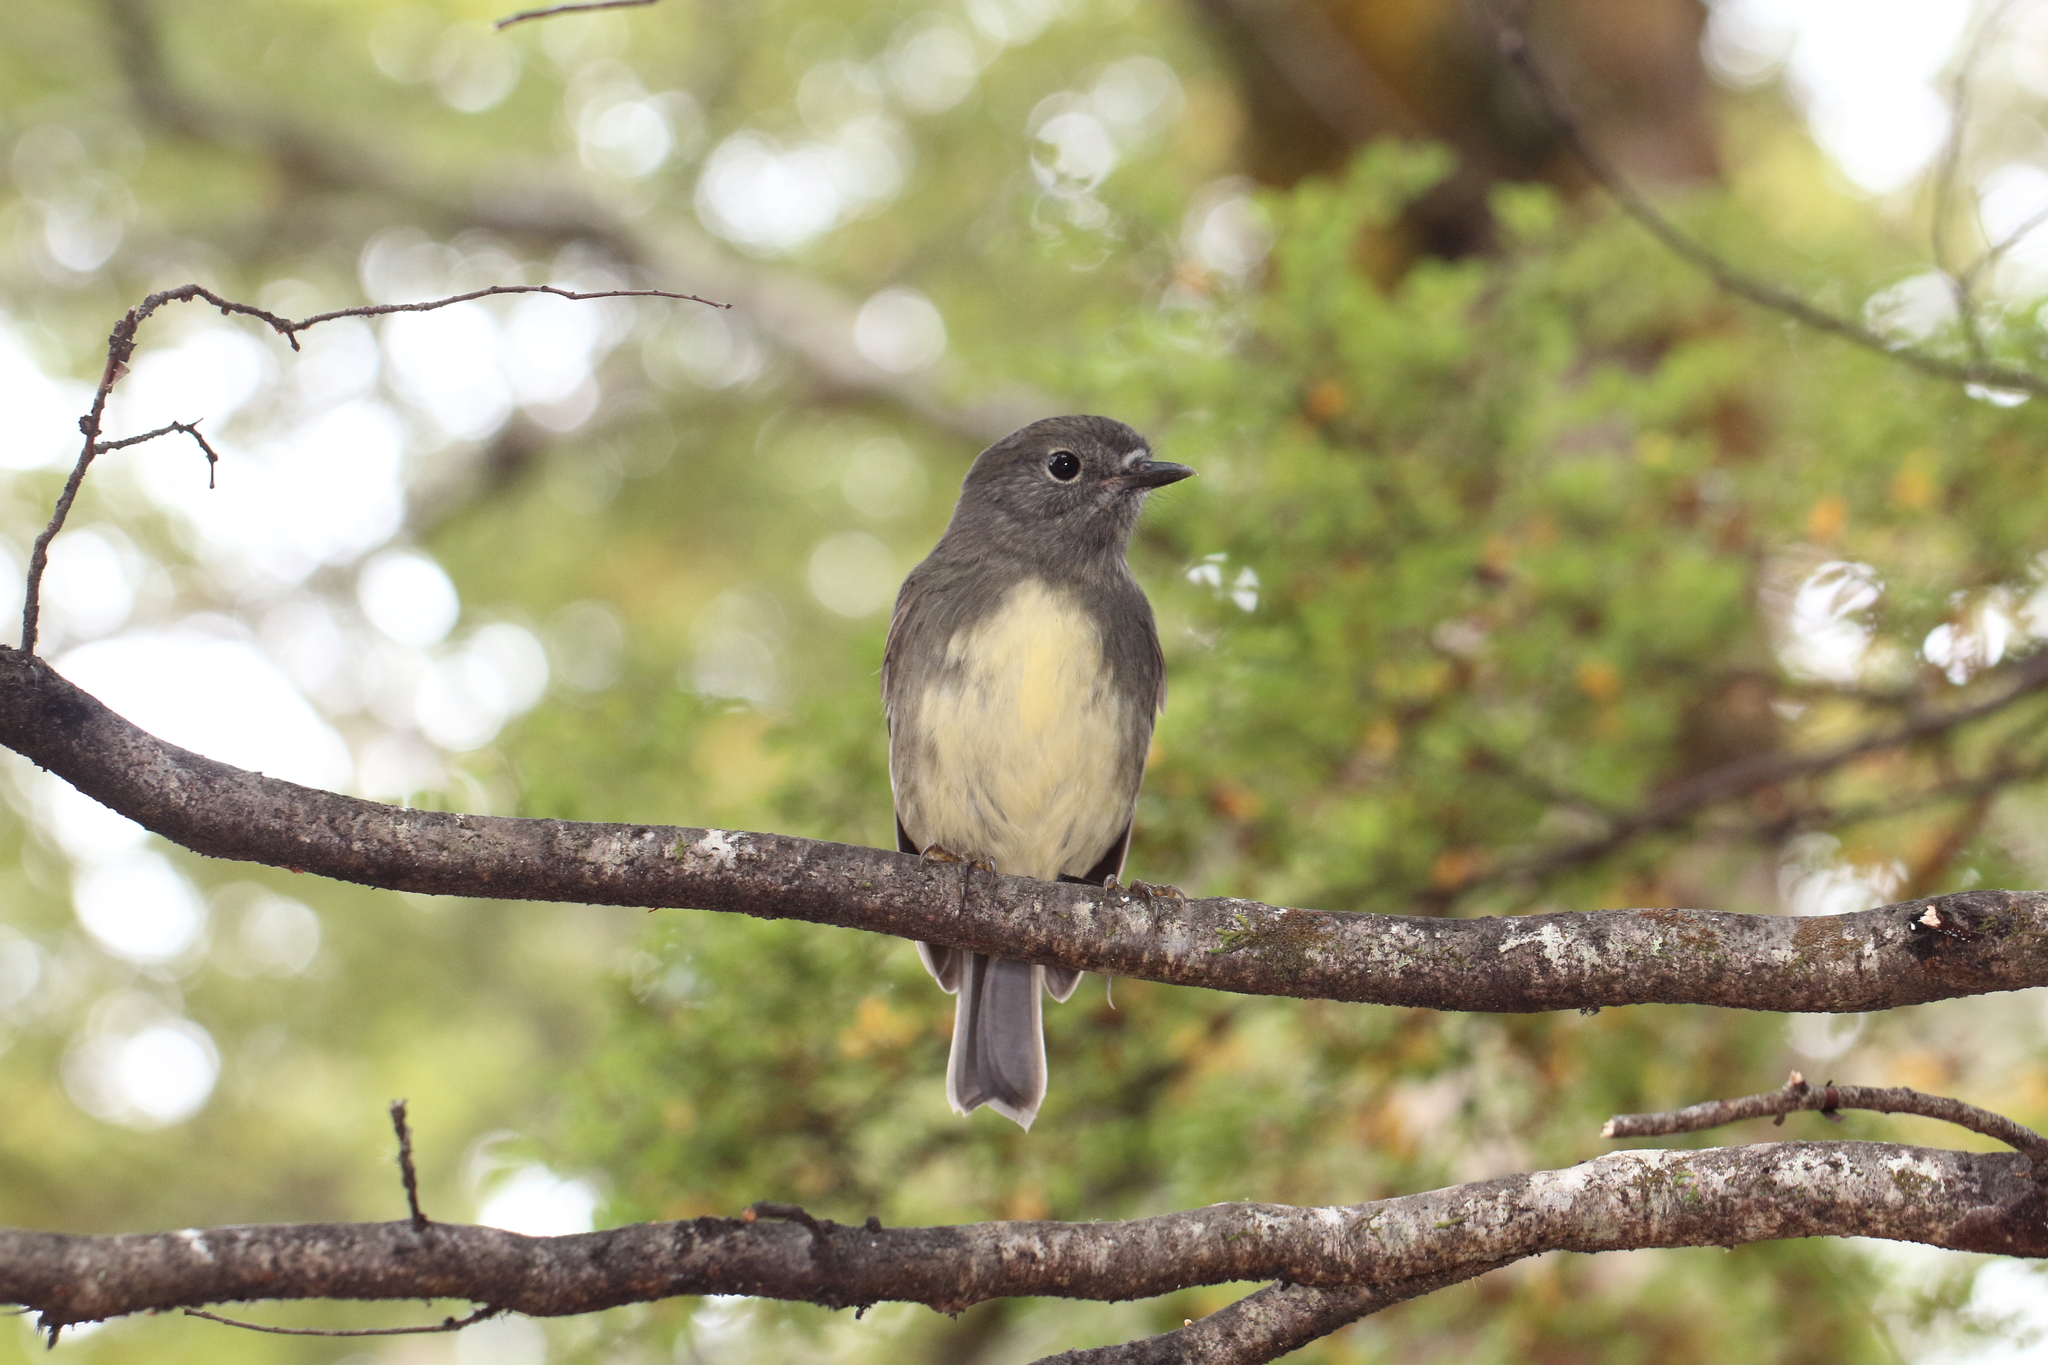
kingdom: Animalia
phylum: Chordata
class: Aves
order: Passeriformes
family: Petroicidae
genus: Petroica
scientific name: Petroica australis
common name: New zealand robin
